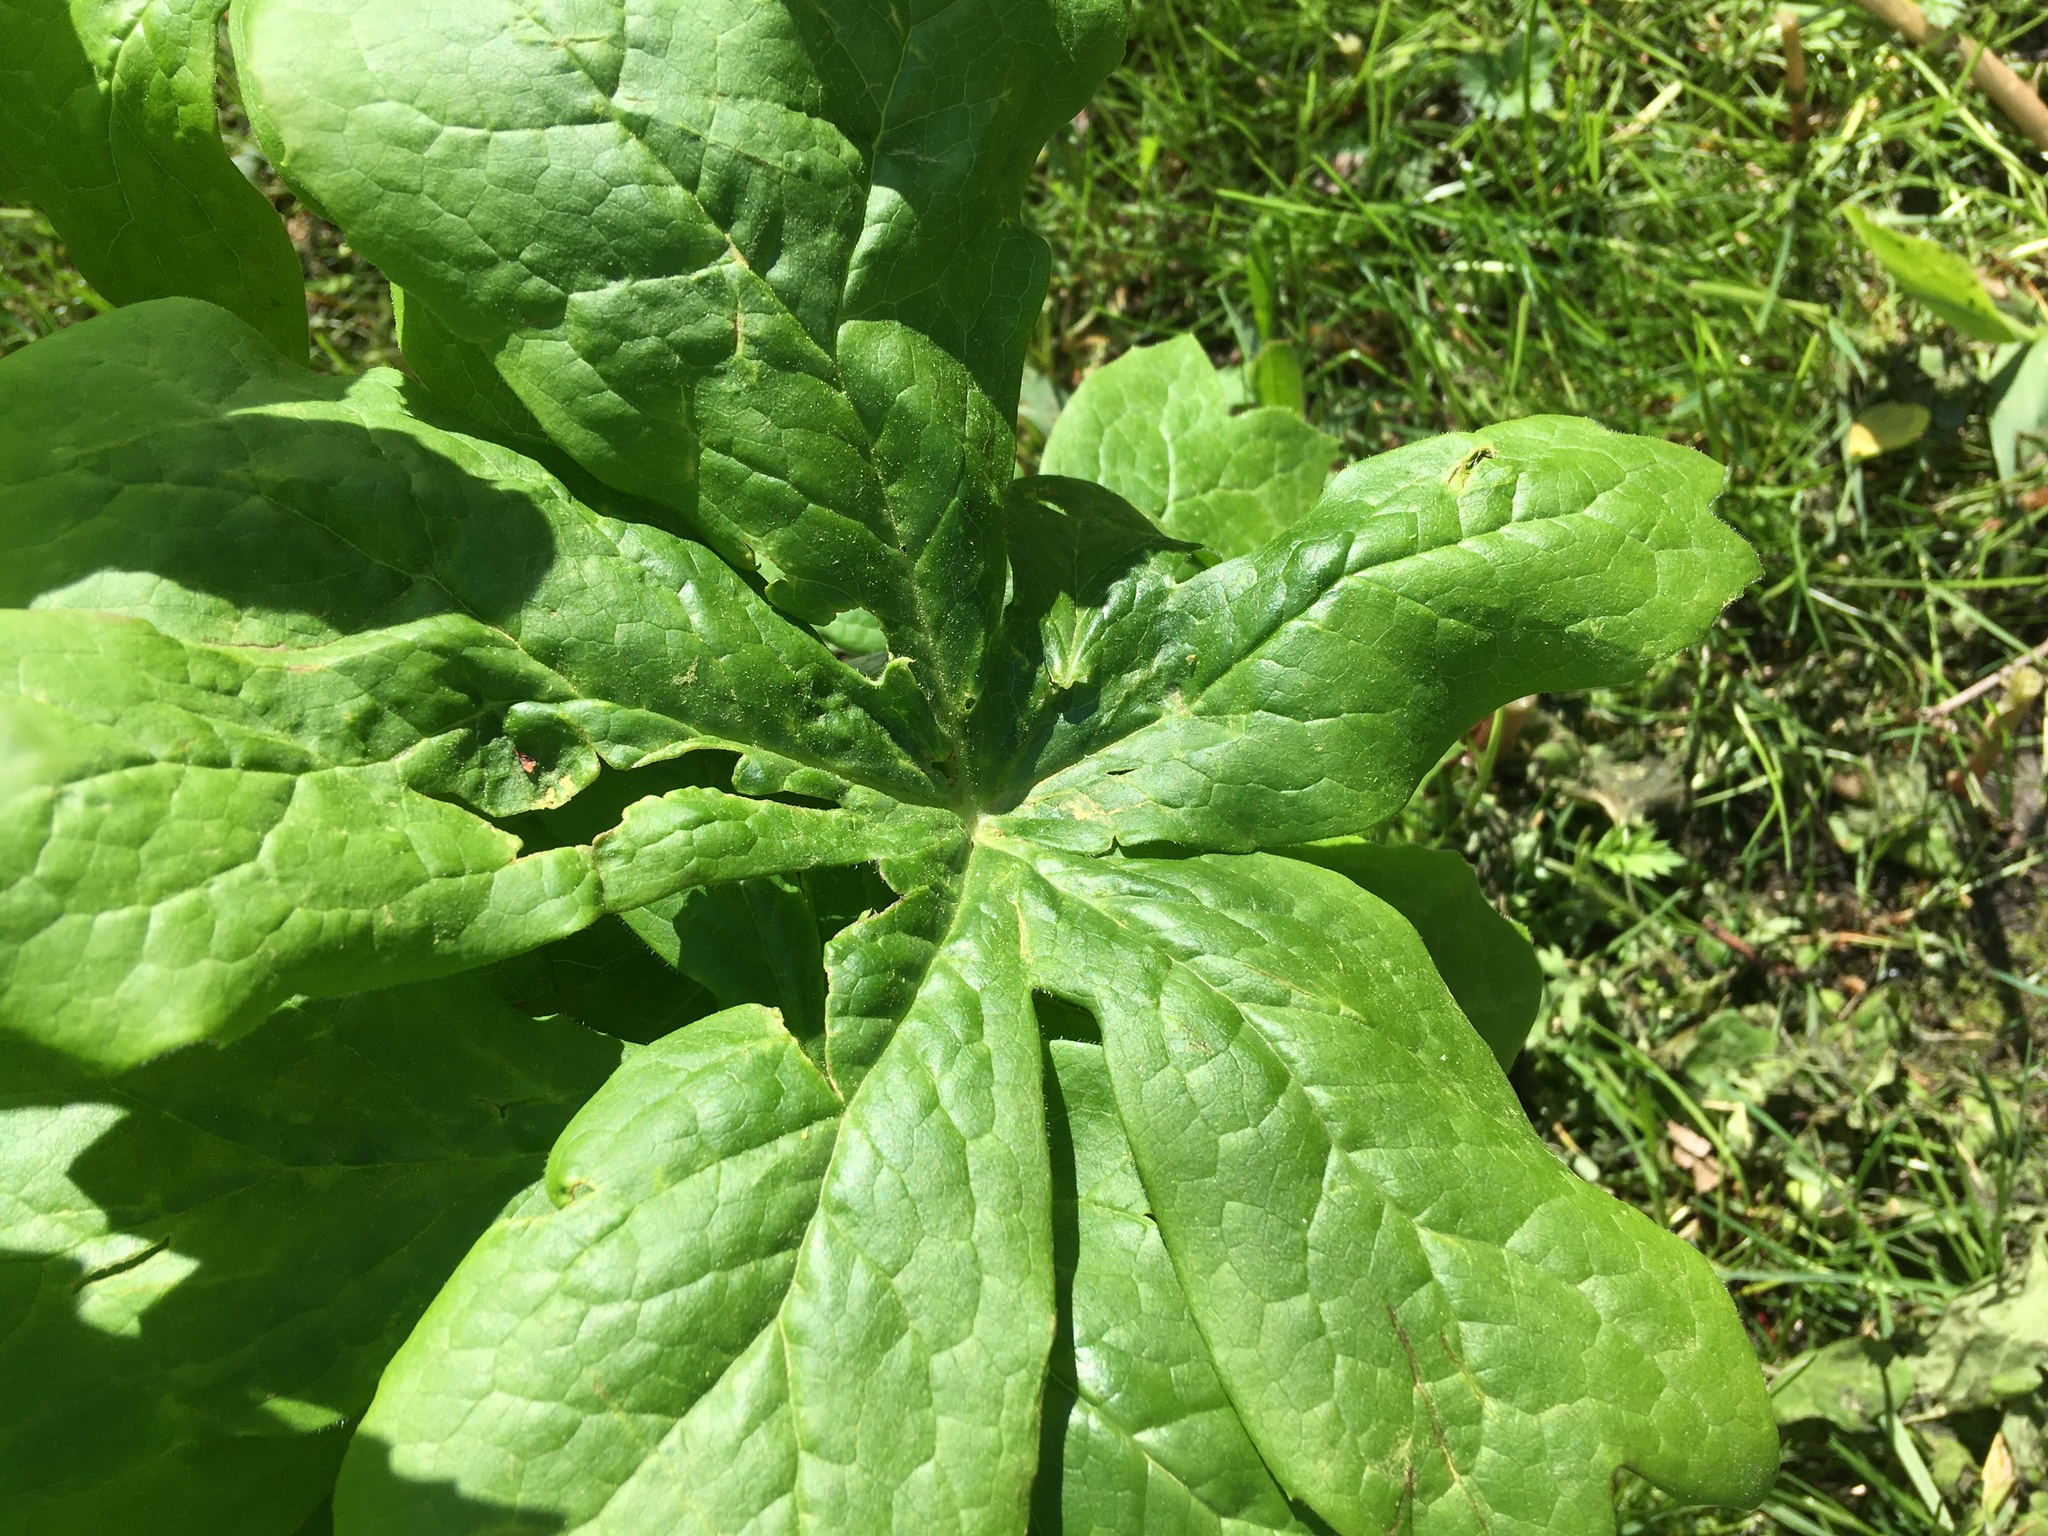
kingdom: Plantae
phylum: Tracheophyta
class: Magnoliopsida
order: Ranunculales
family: Berberidaceae
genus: Podophyllum
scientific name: Podophyllum peltatum
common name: Wild mandrake
